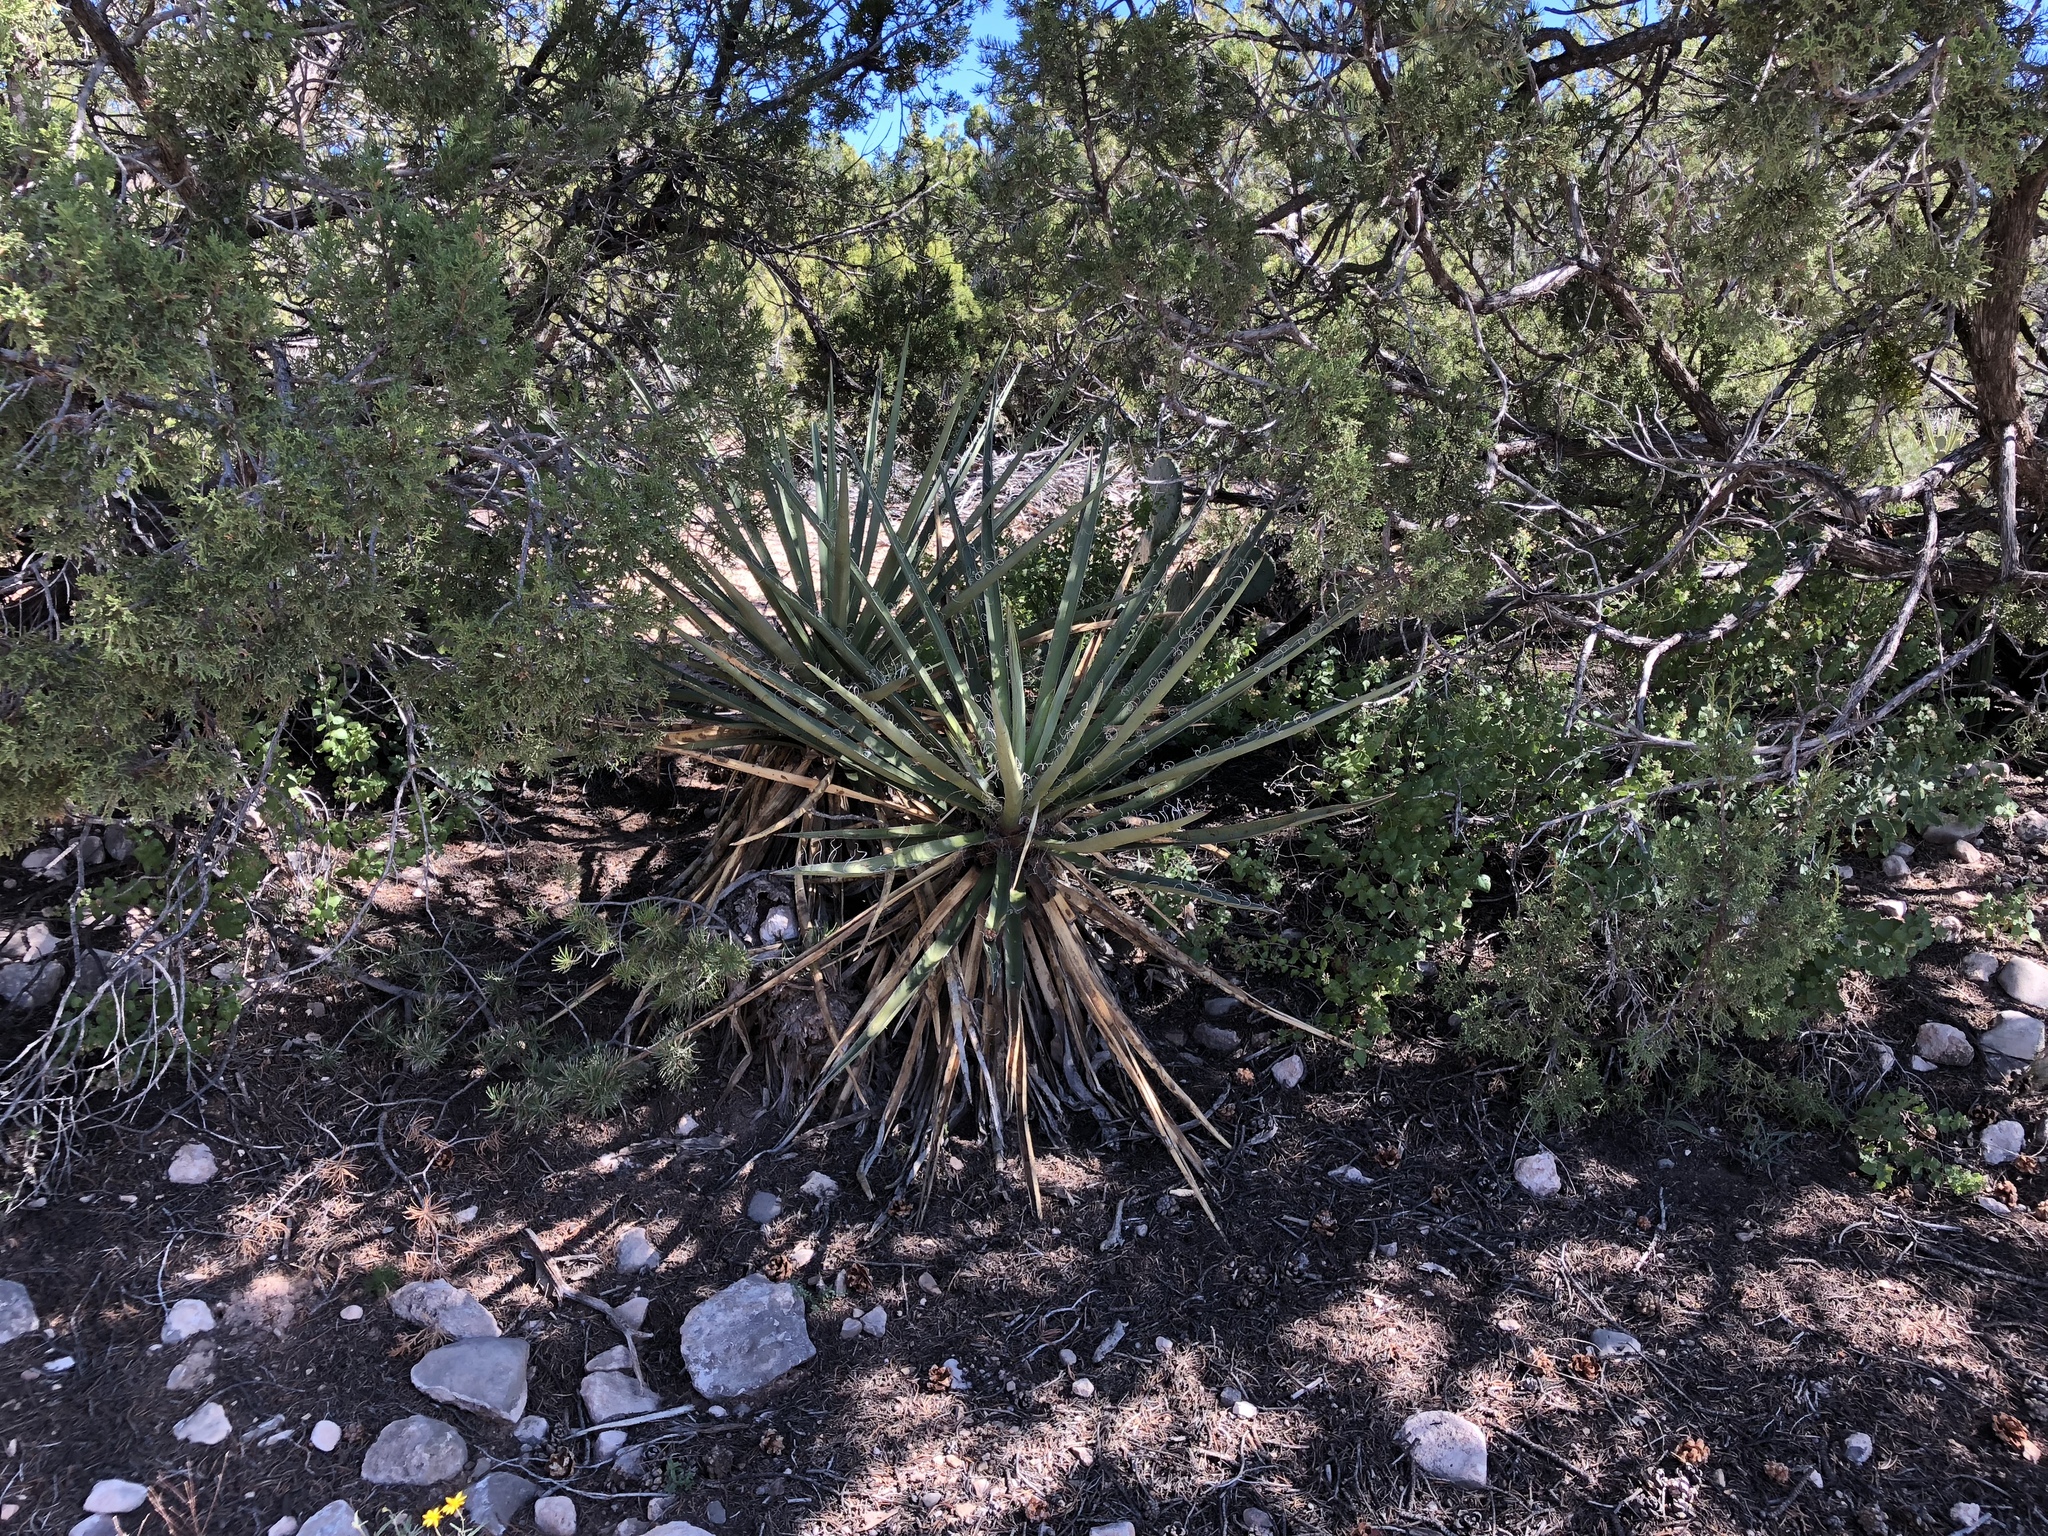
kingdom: Plantae
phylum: Tracheophyta
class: Liliopsida
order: Asparagales
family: Asparagaceae
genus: Yucca
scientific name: Yucca baccata
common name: Banana yucca
